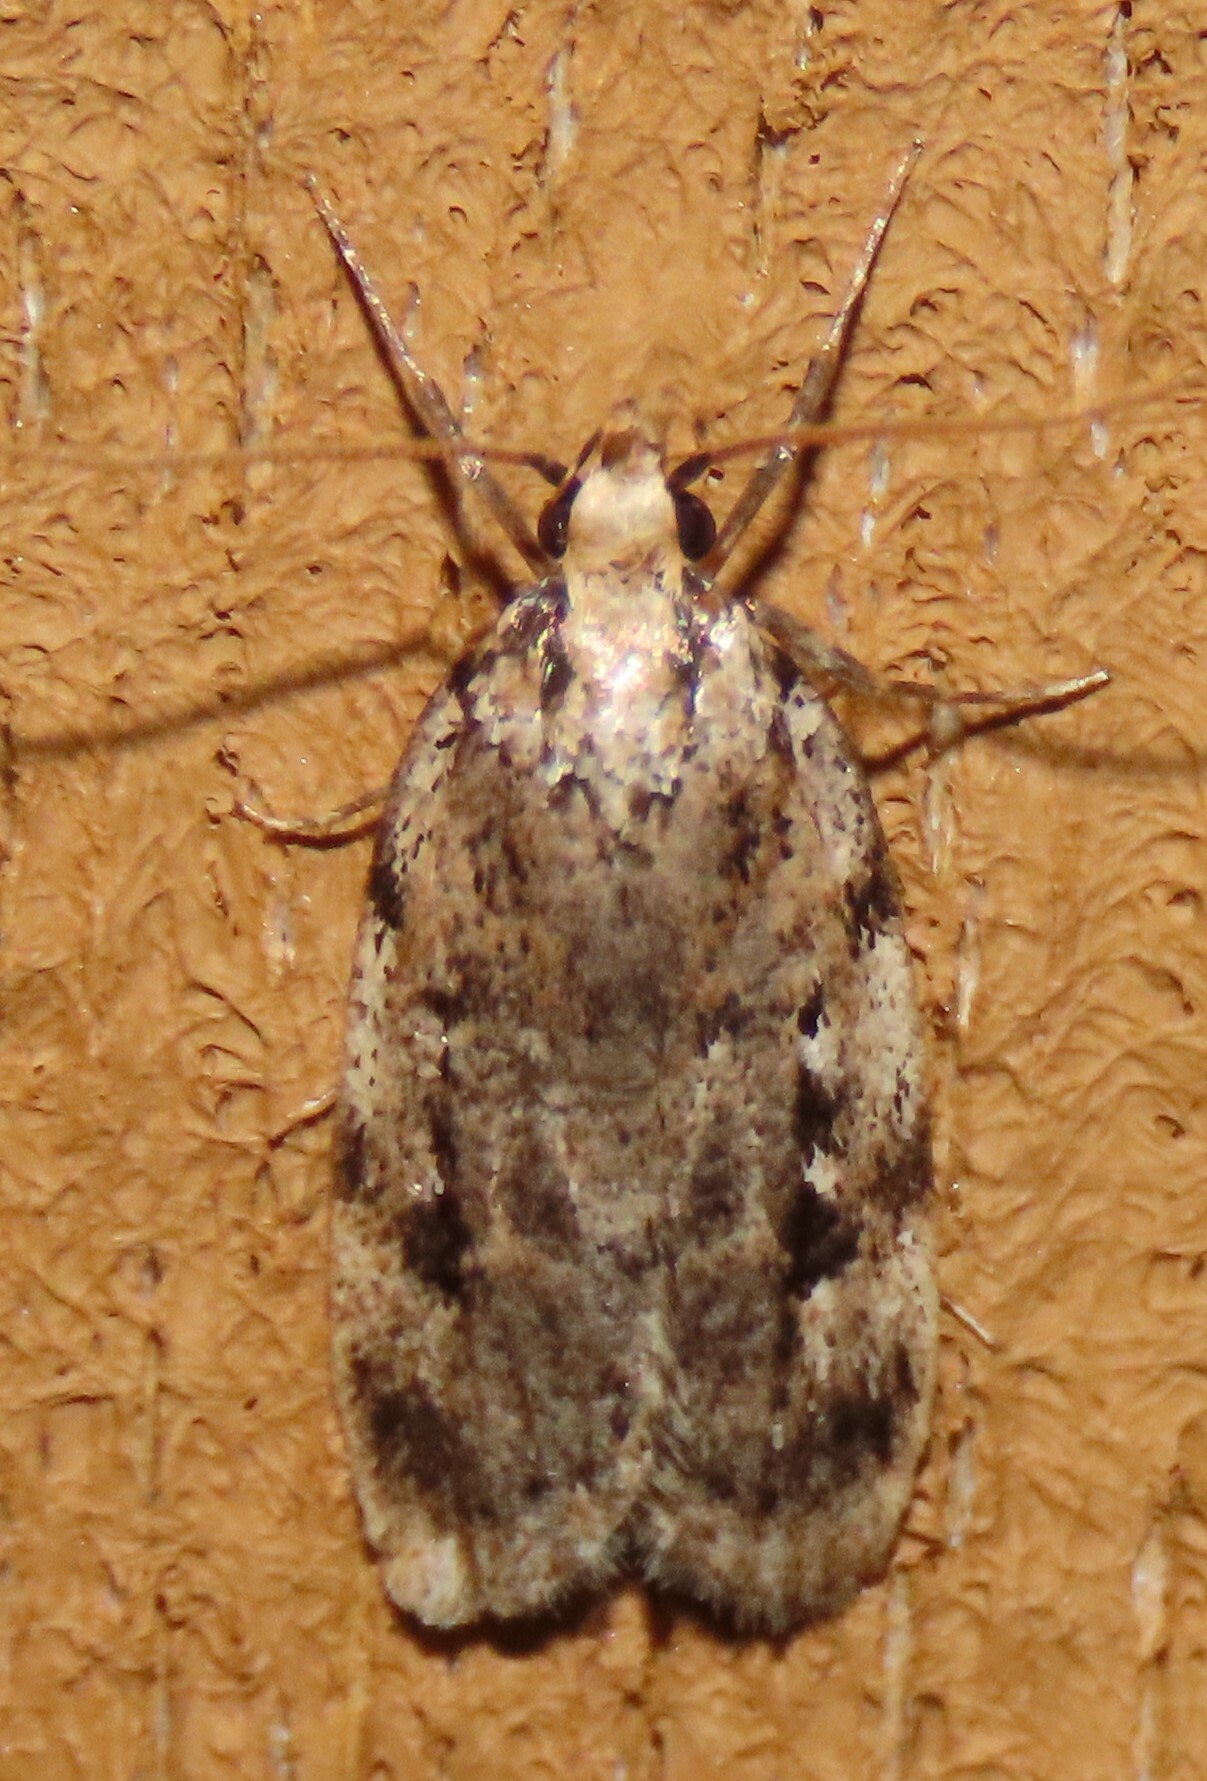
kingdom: Animalia
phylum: Arthropoda
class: Insecta
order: Lepidoptera
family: Oecophoridae
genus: Barea
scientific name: Barea exarcha
